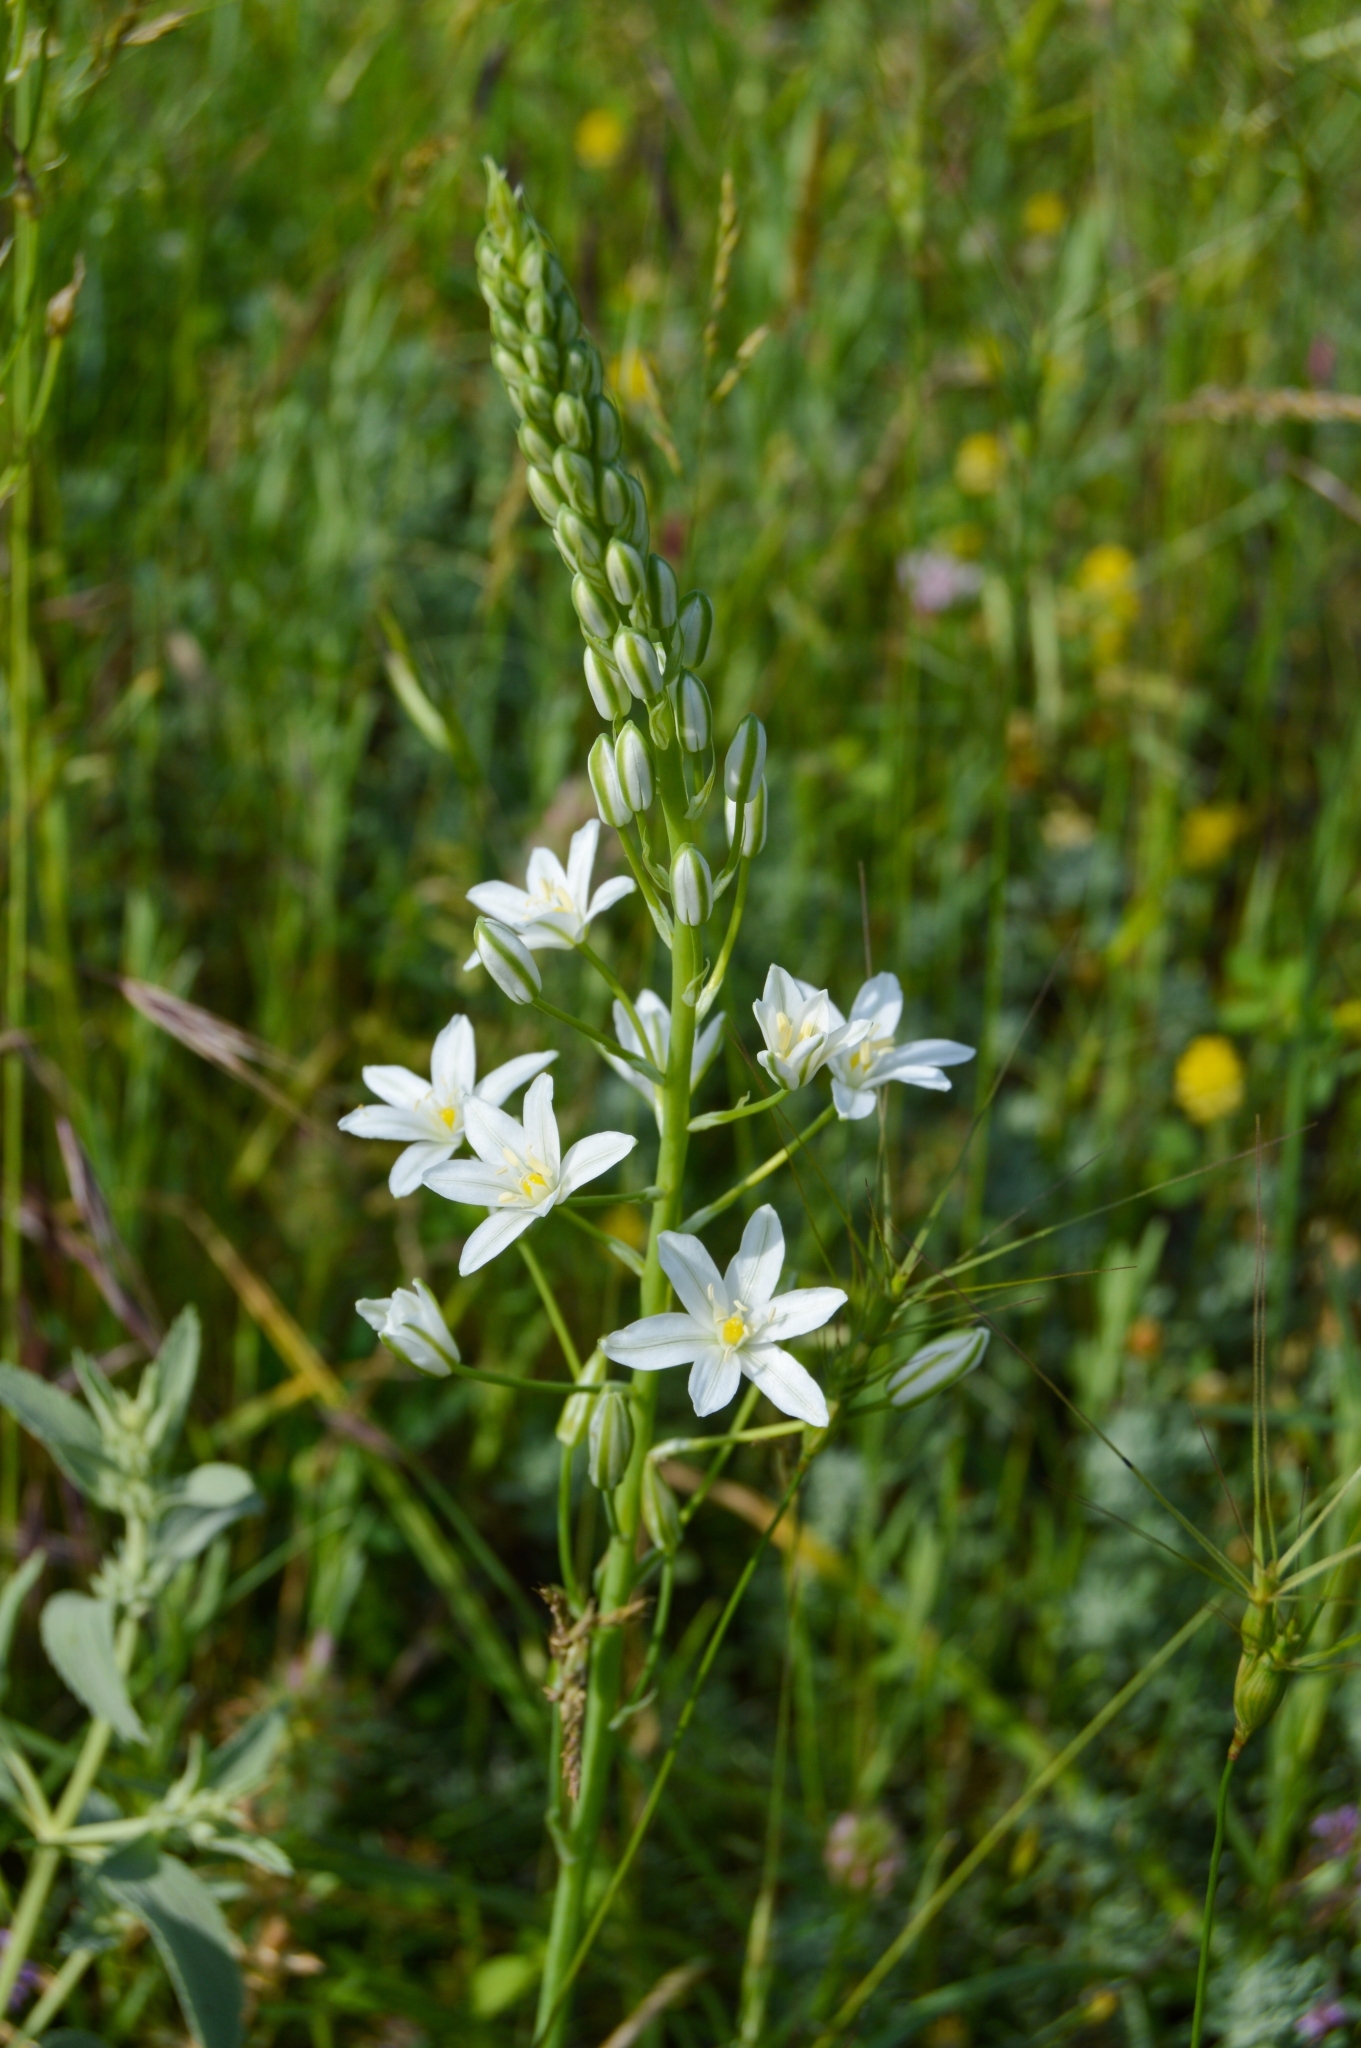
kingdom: Plantae
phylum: Tracheophyta
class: Liliopsida
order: Asparagales
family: Asparagaceae
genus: Ornithogalum
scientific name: Ornithogalum ponticum
